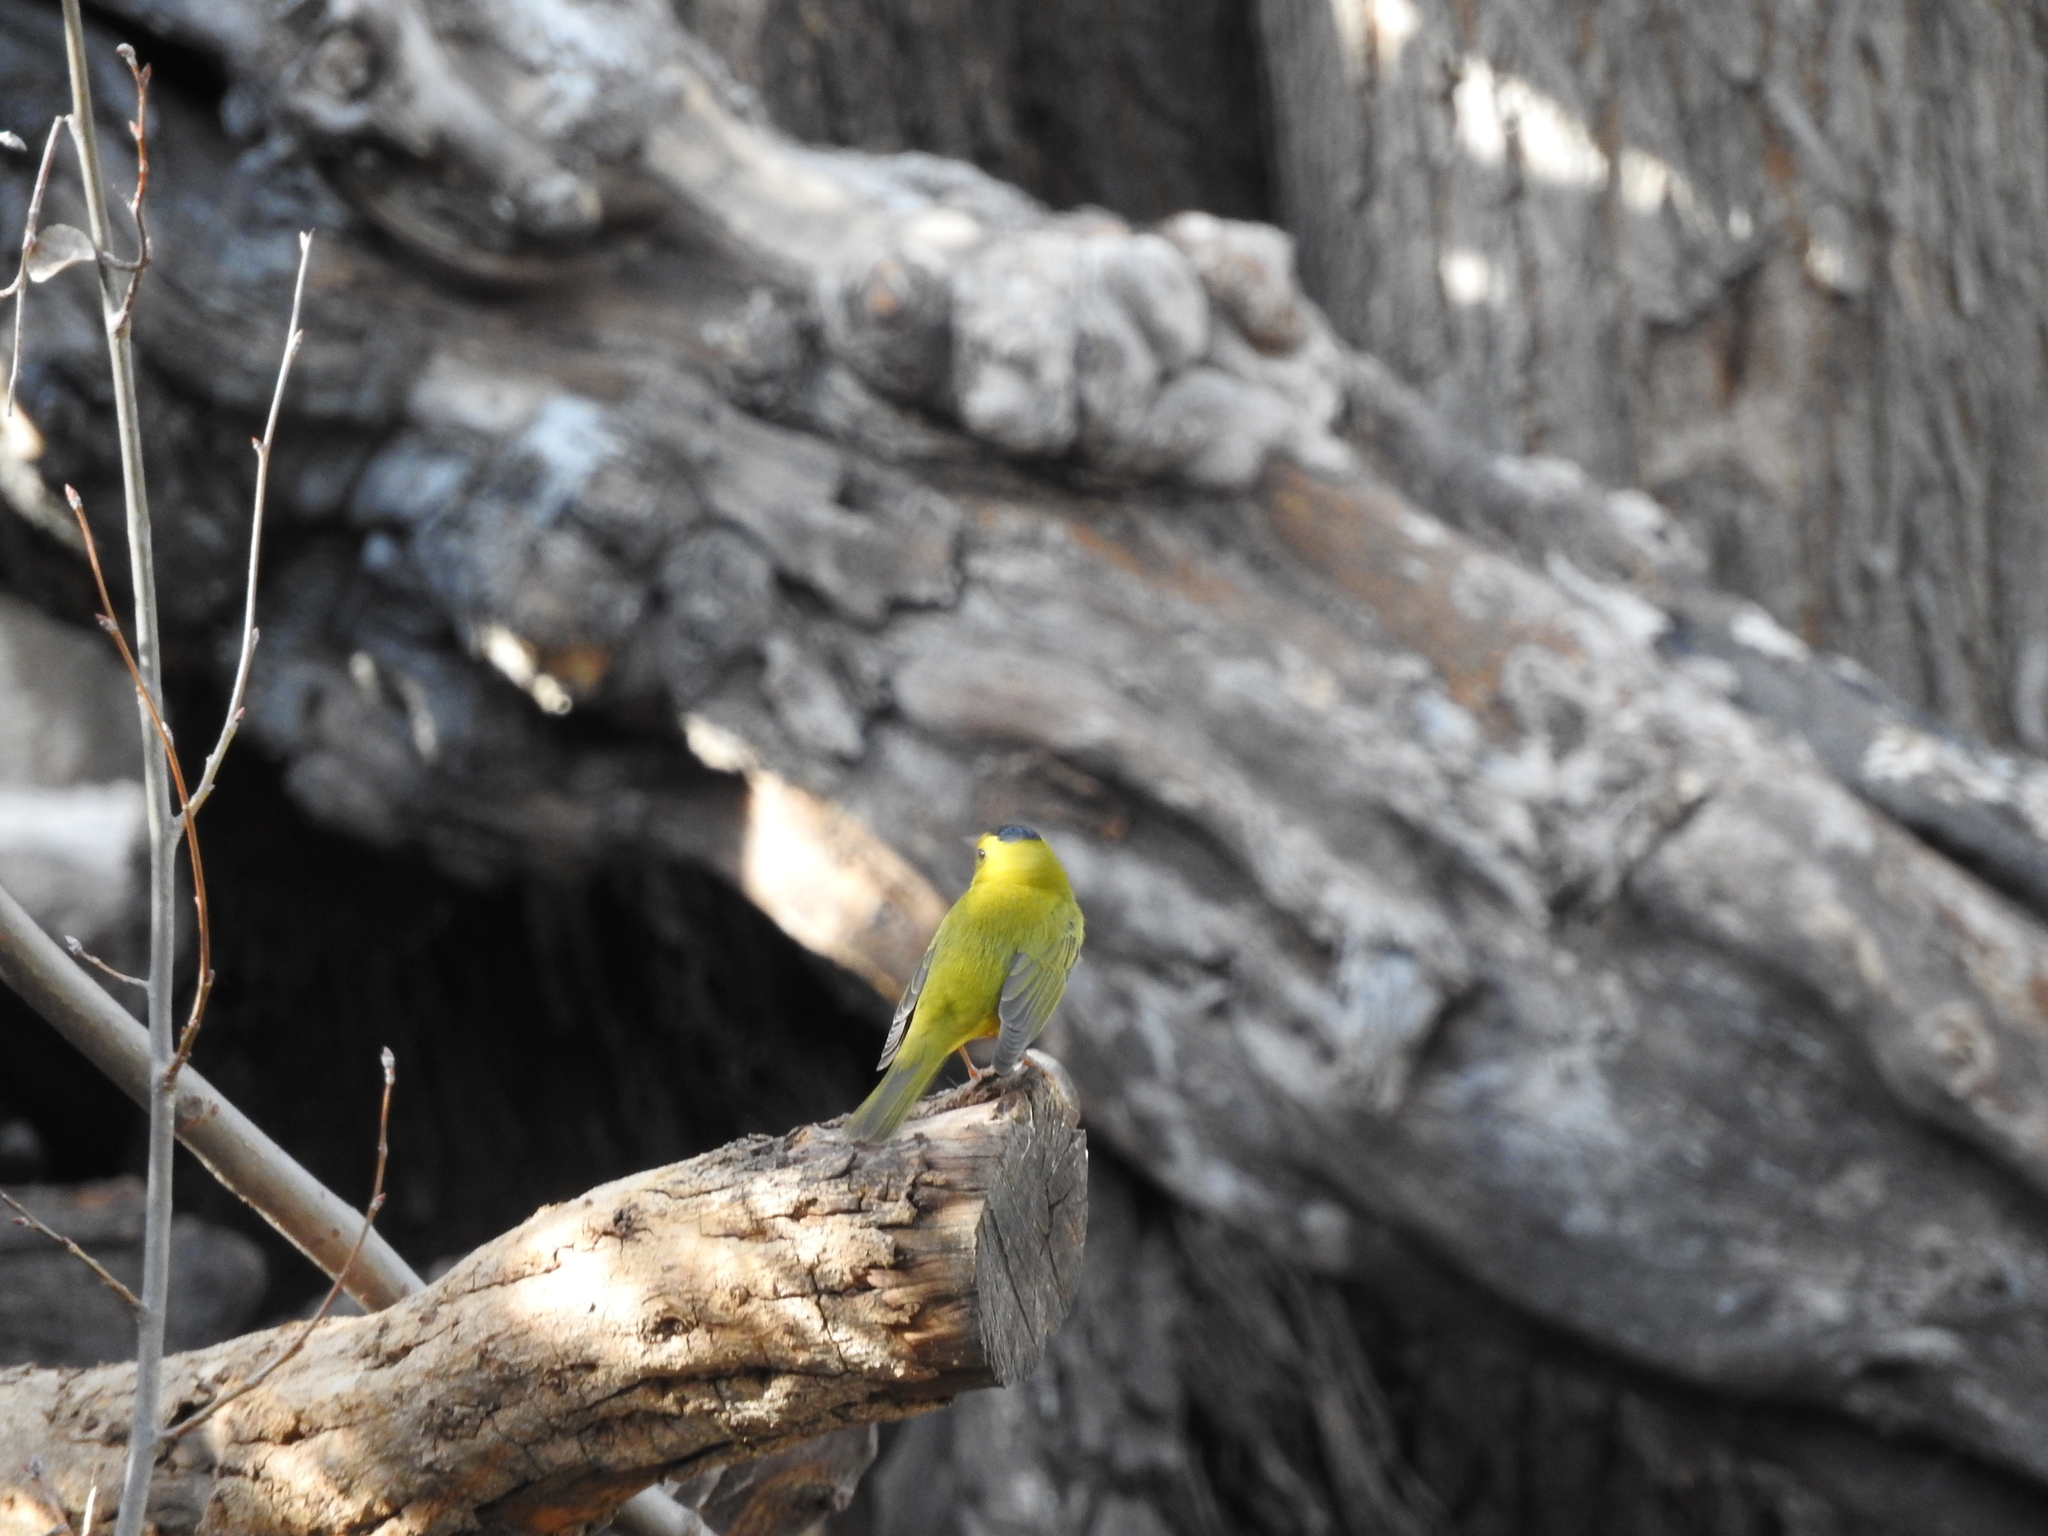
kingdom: Animalia
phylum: Chordata
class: Aves
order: Passeriformes
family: Parulidae
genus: Cardellina
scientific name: Cardellina pusilla
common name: Wilson's warbler
